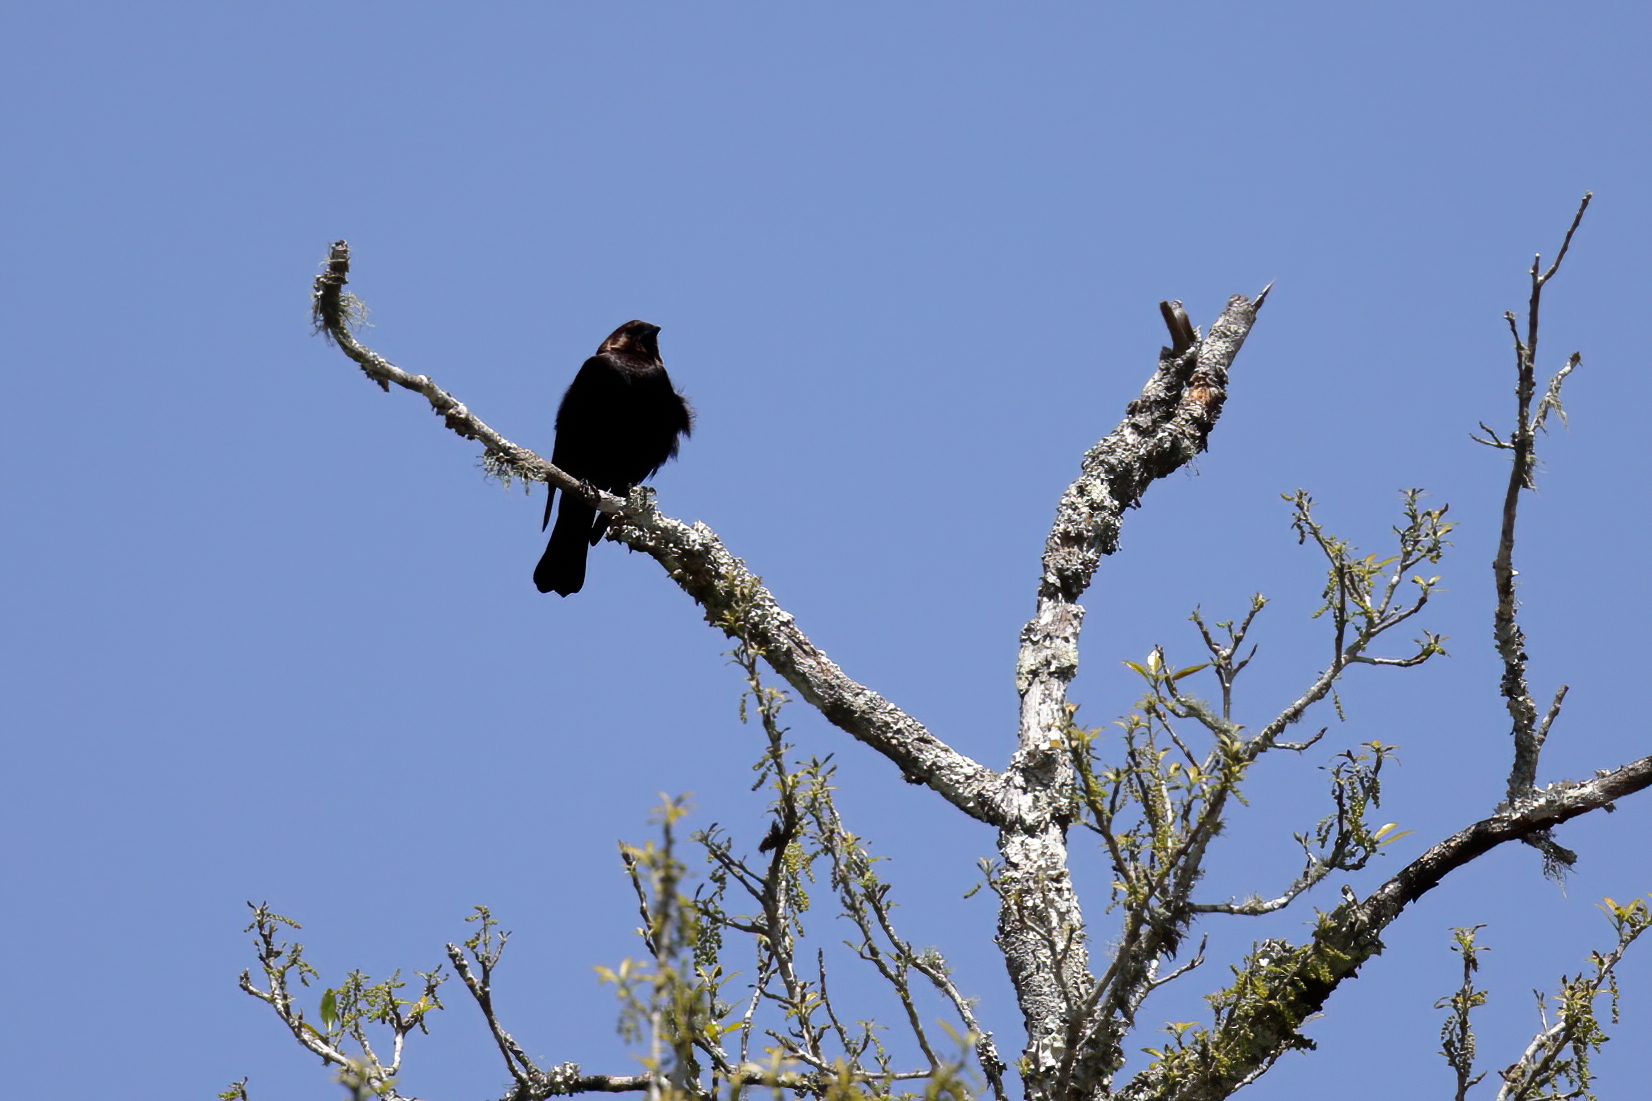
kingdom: Animalia
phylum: Chordata
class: Aves
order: Passeriformes
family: Icteridae
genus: Molothrus
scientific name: Molothrus ater
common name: Brown-headed cowbird
